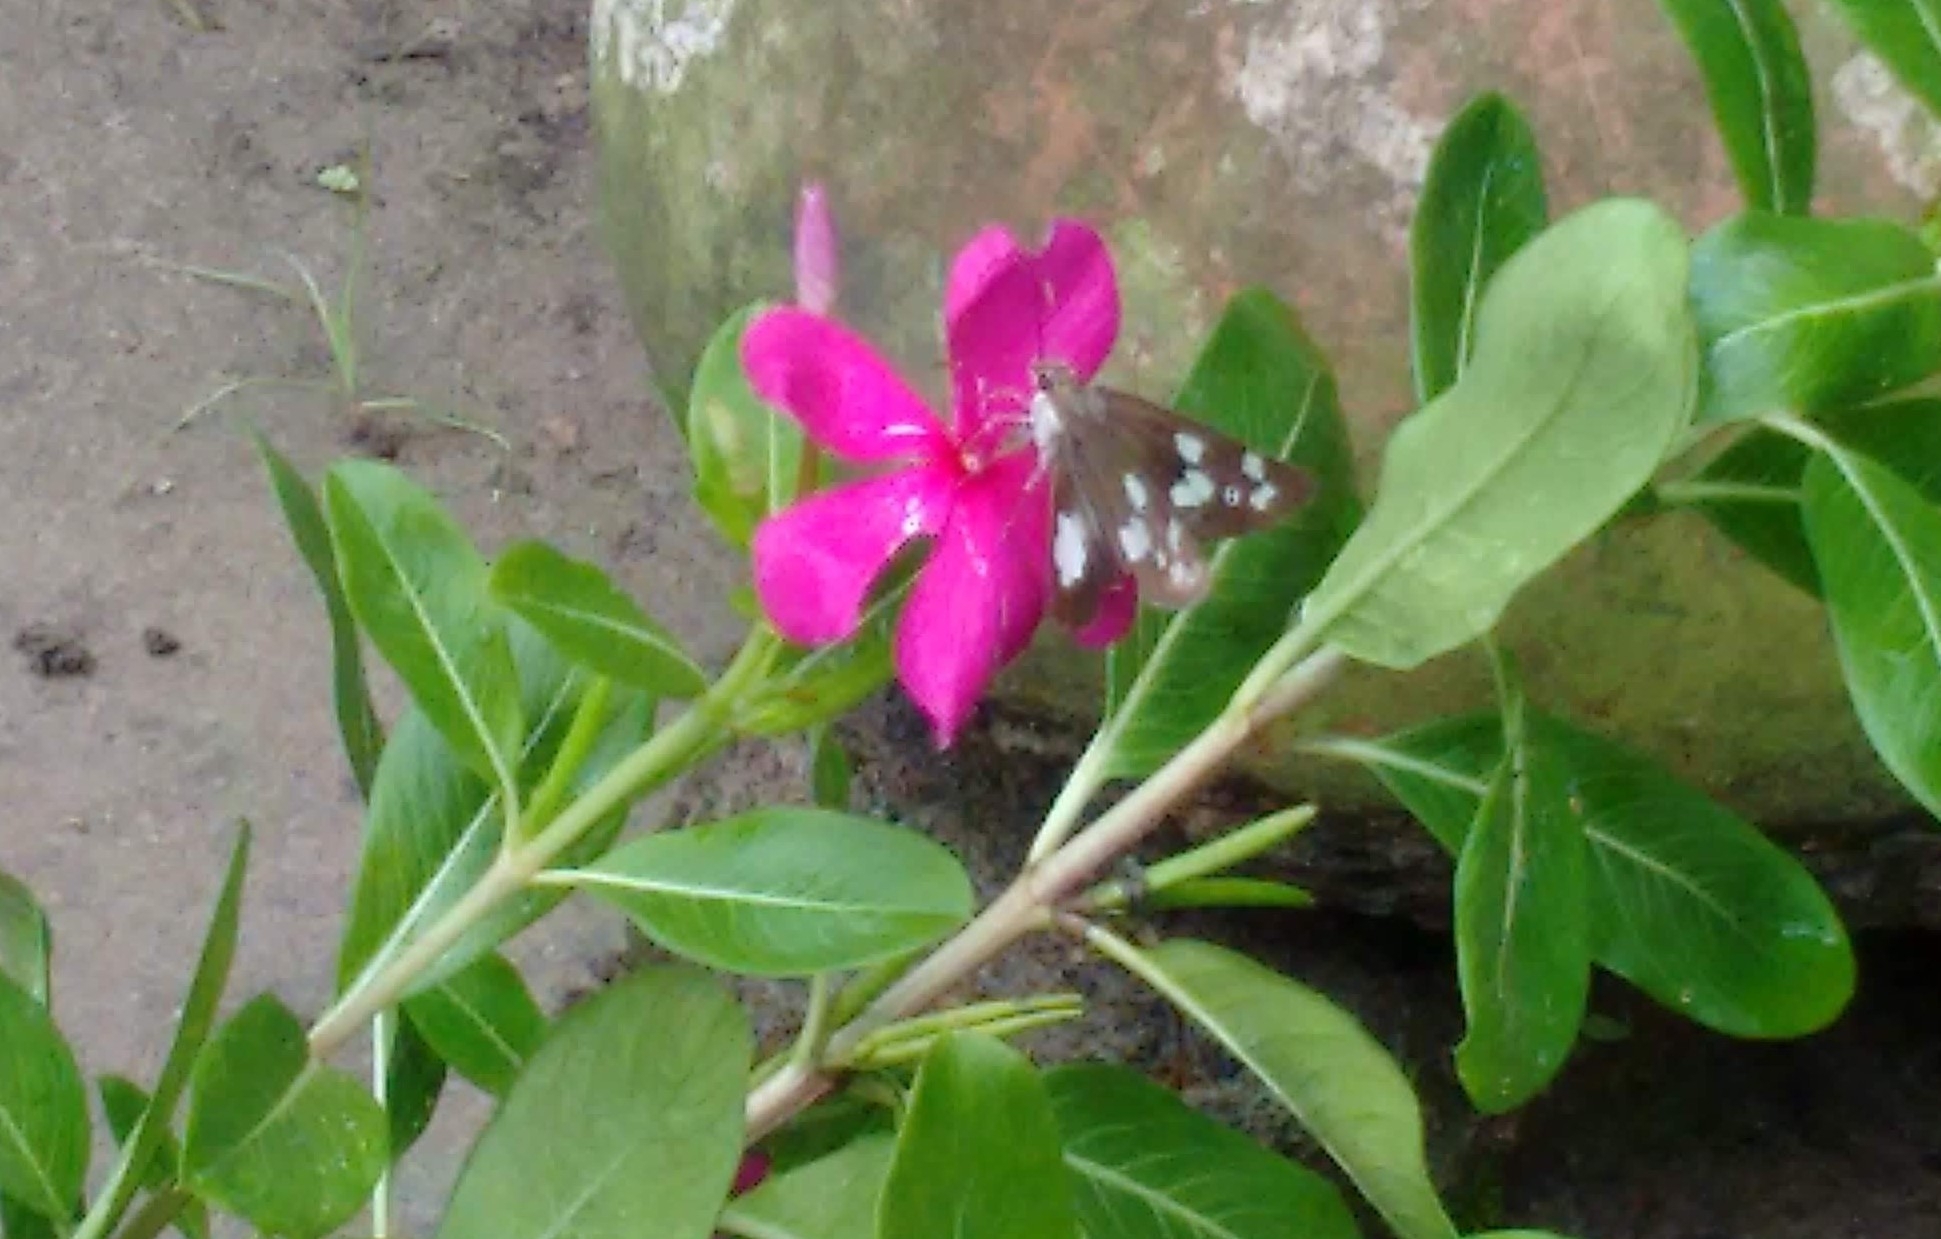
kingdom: Animalia
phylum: Arthropoda
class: Insecta
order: Lepidoptera
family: Hesperiidae
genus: Udaspes
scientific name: Udaspes folus
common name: Grass demon
